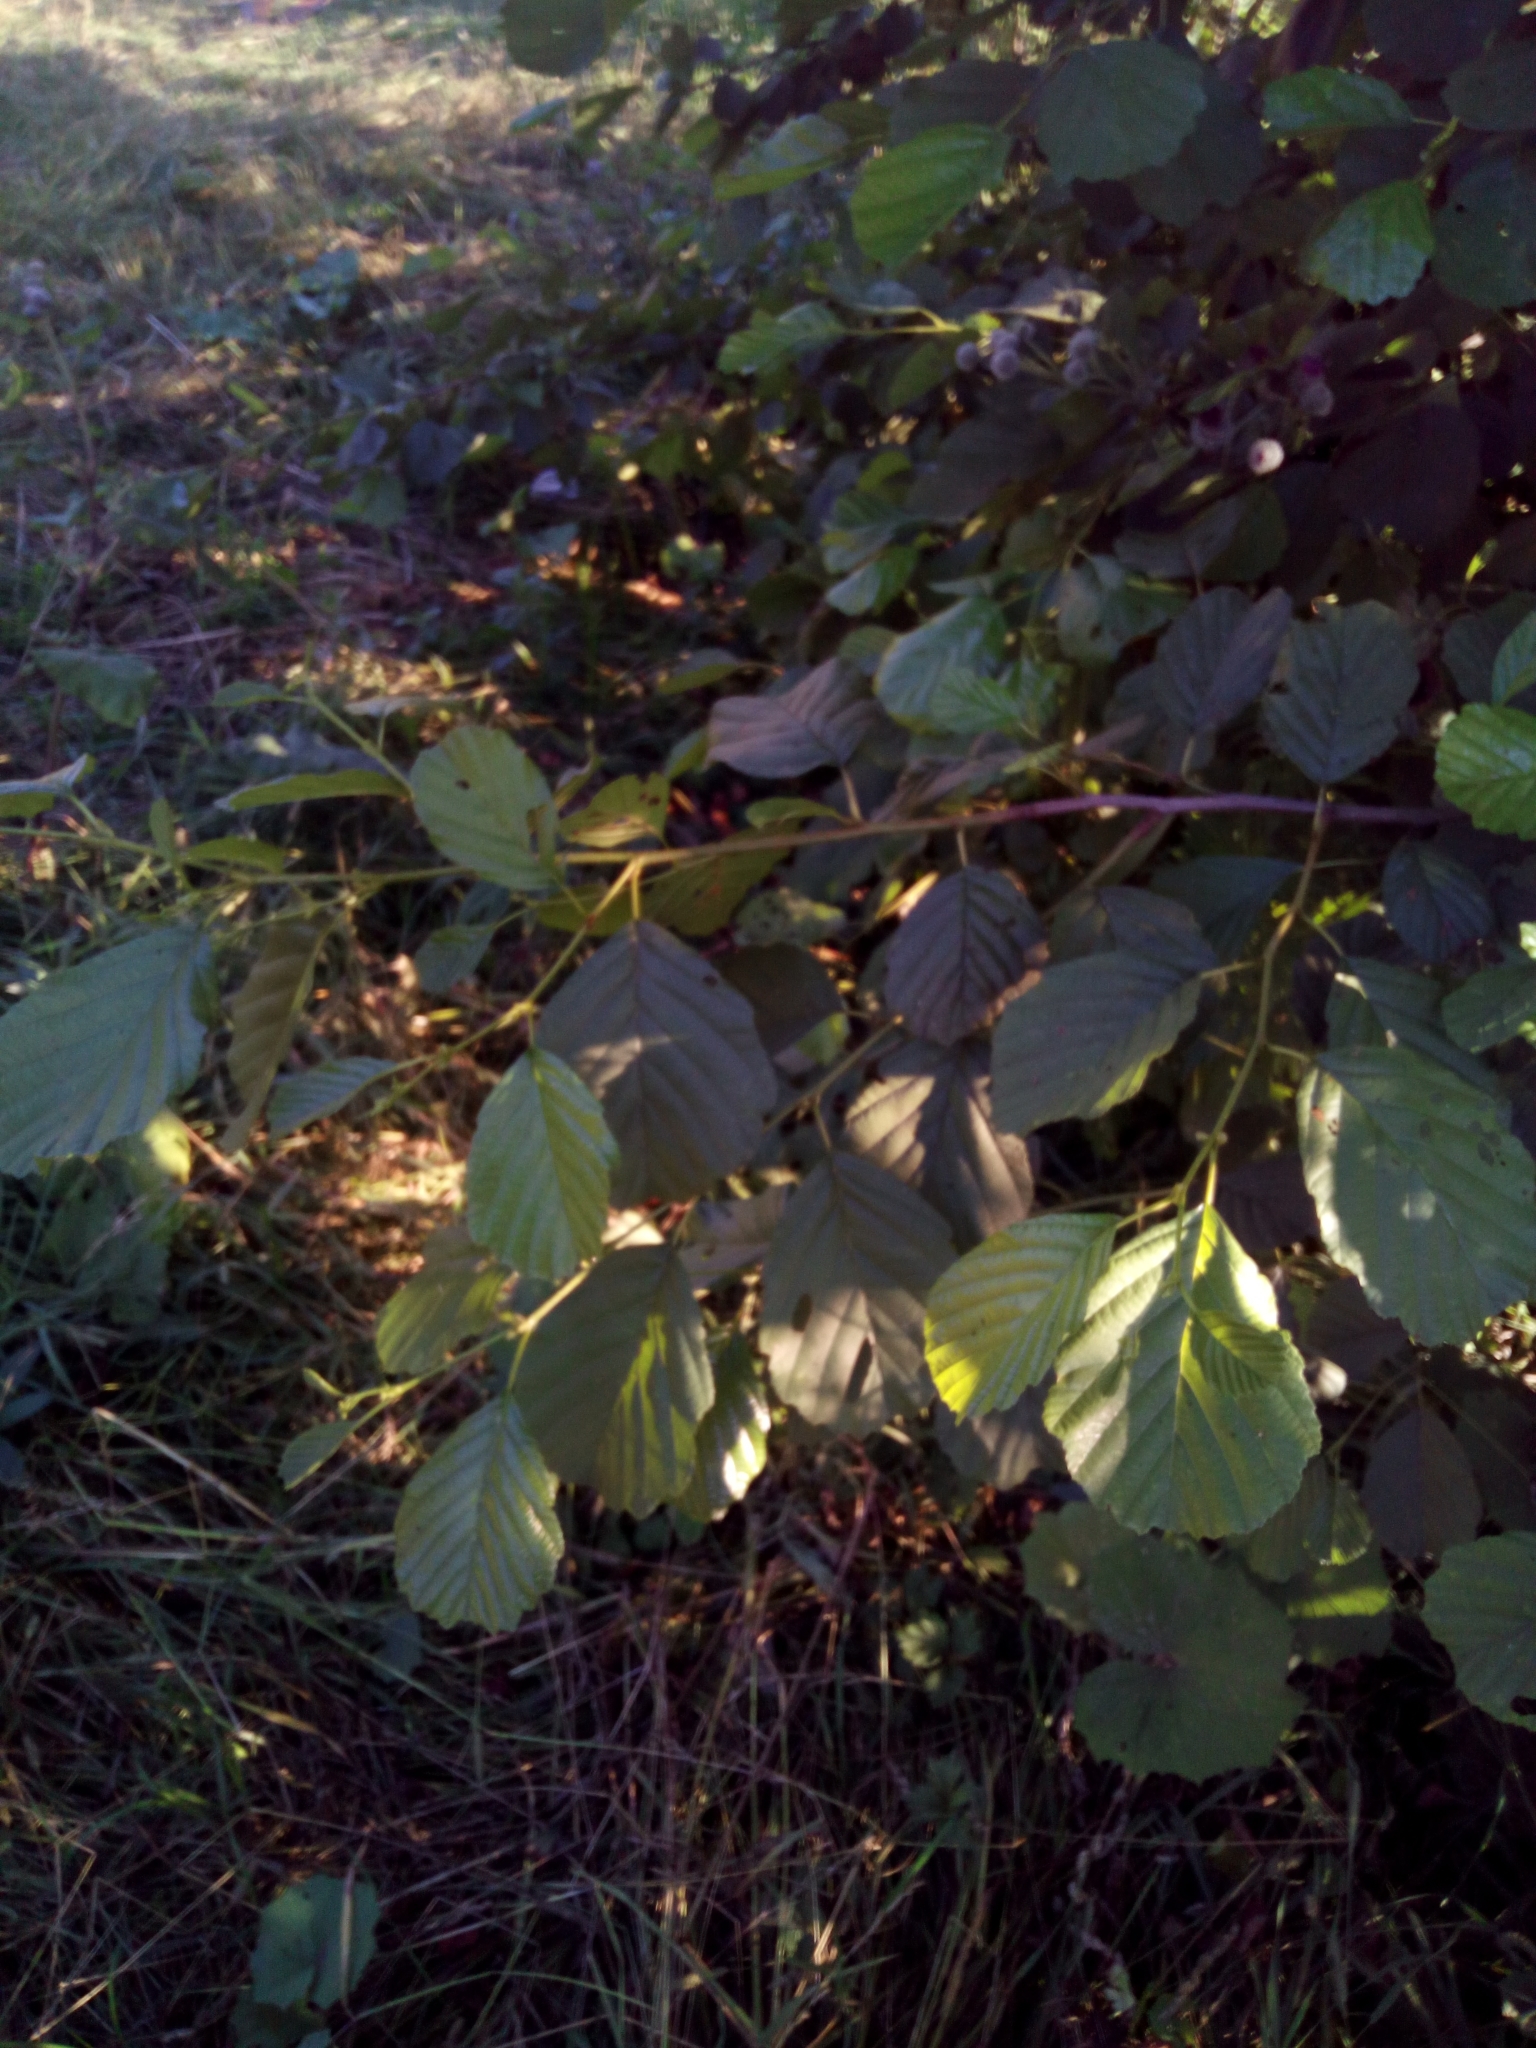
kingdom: Plantae
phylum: Tracheophyta
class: Magnoliopsida
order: Fagales
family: Betulaceae
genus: Alnus
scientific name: Alnus glutinosa
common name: Black alder
